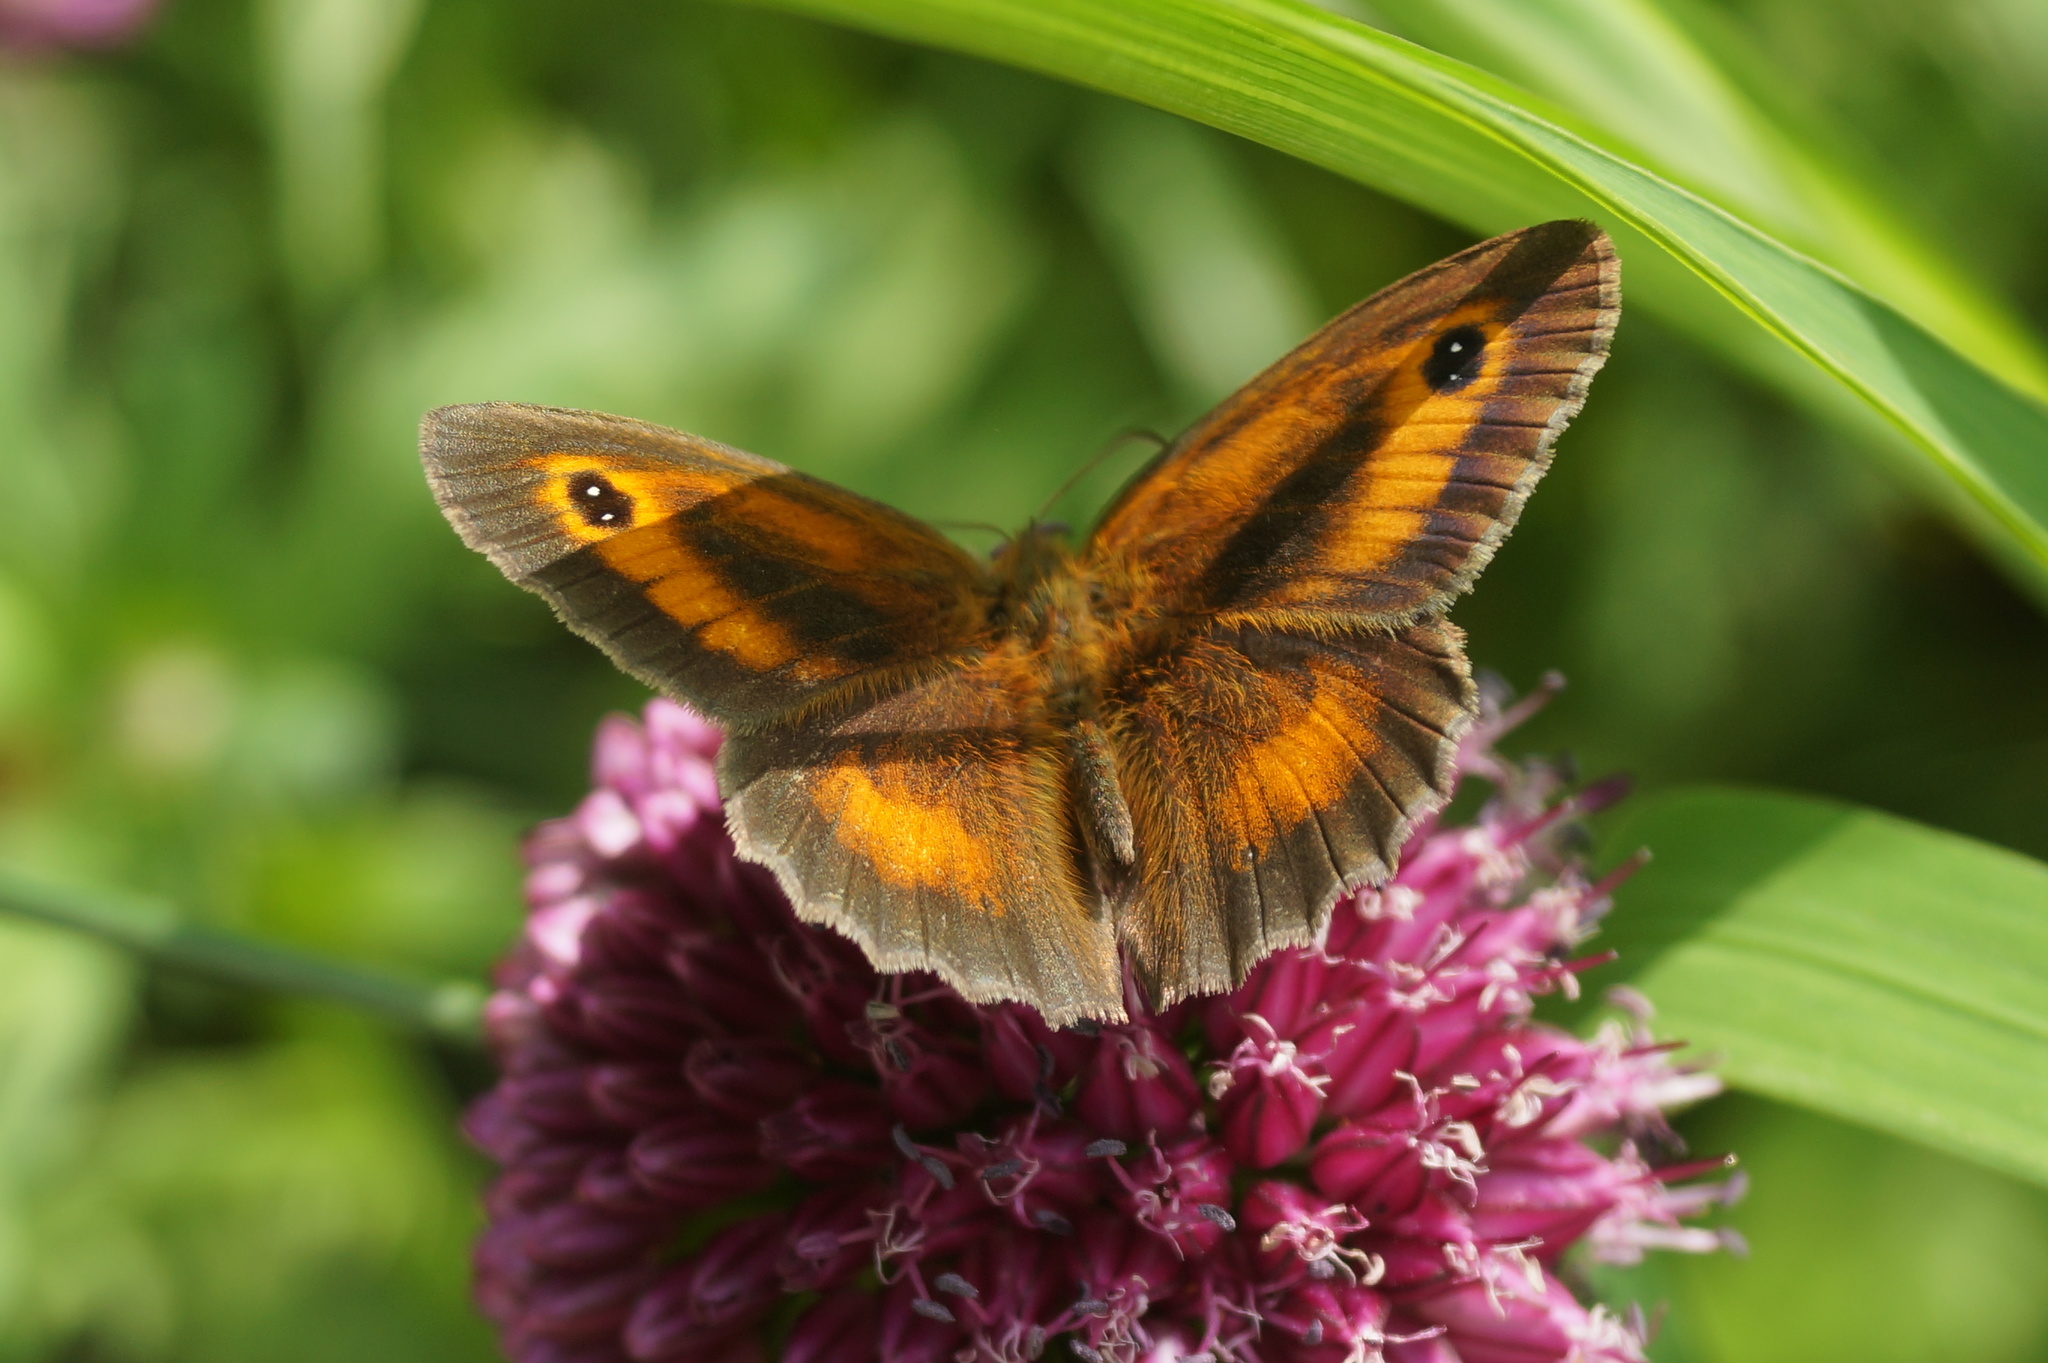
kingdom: Animalia
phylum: Arthropoda
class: Insecta
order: Lepidoptera
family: Nymphalidae
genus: Pyronia
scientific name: Pyronia tithonus
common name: Gatekeeper
